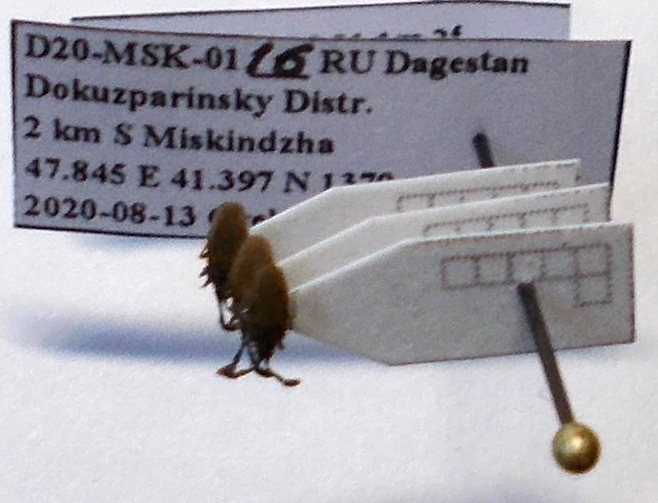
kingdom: Animalia
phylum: Arthropoda
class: Insecta
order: Hemiptera
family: Tingidae
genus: Copium
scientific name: Copium teucrii
